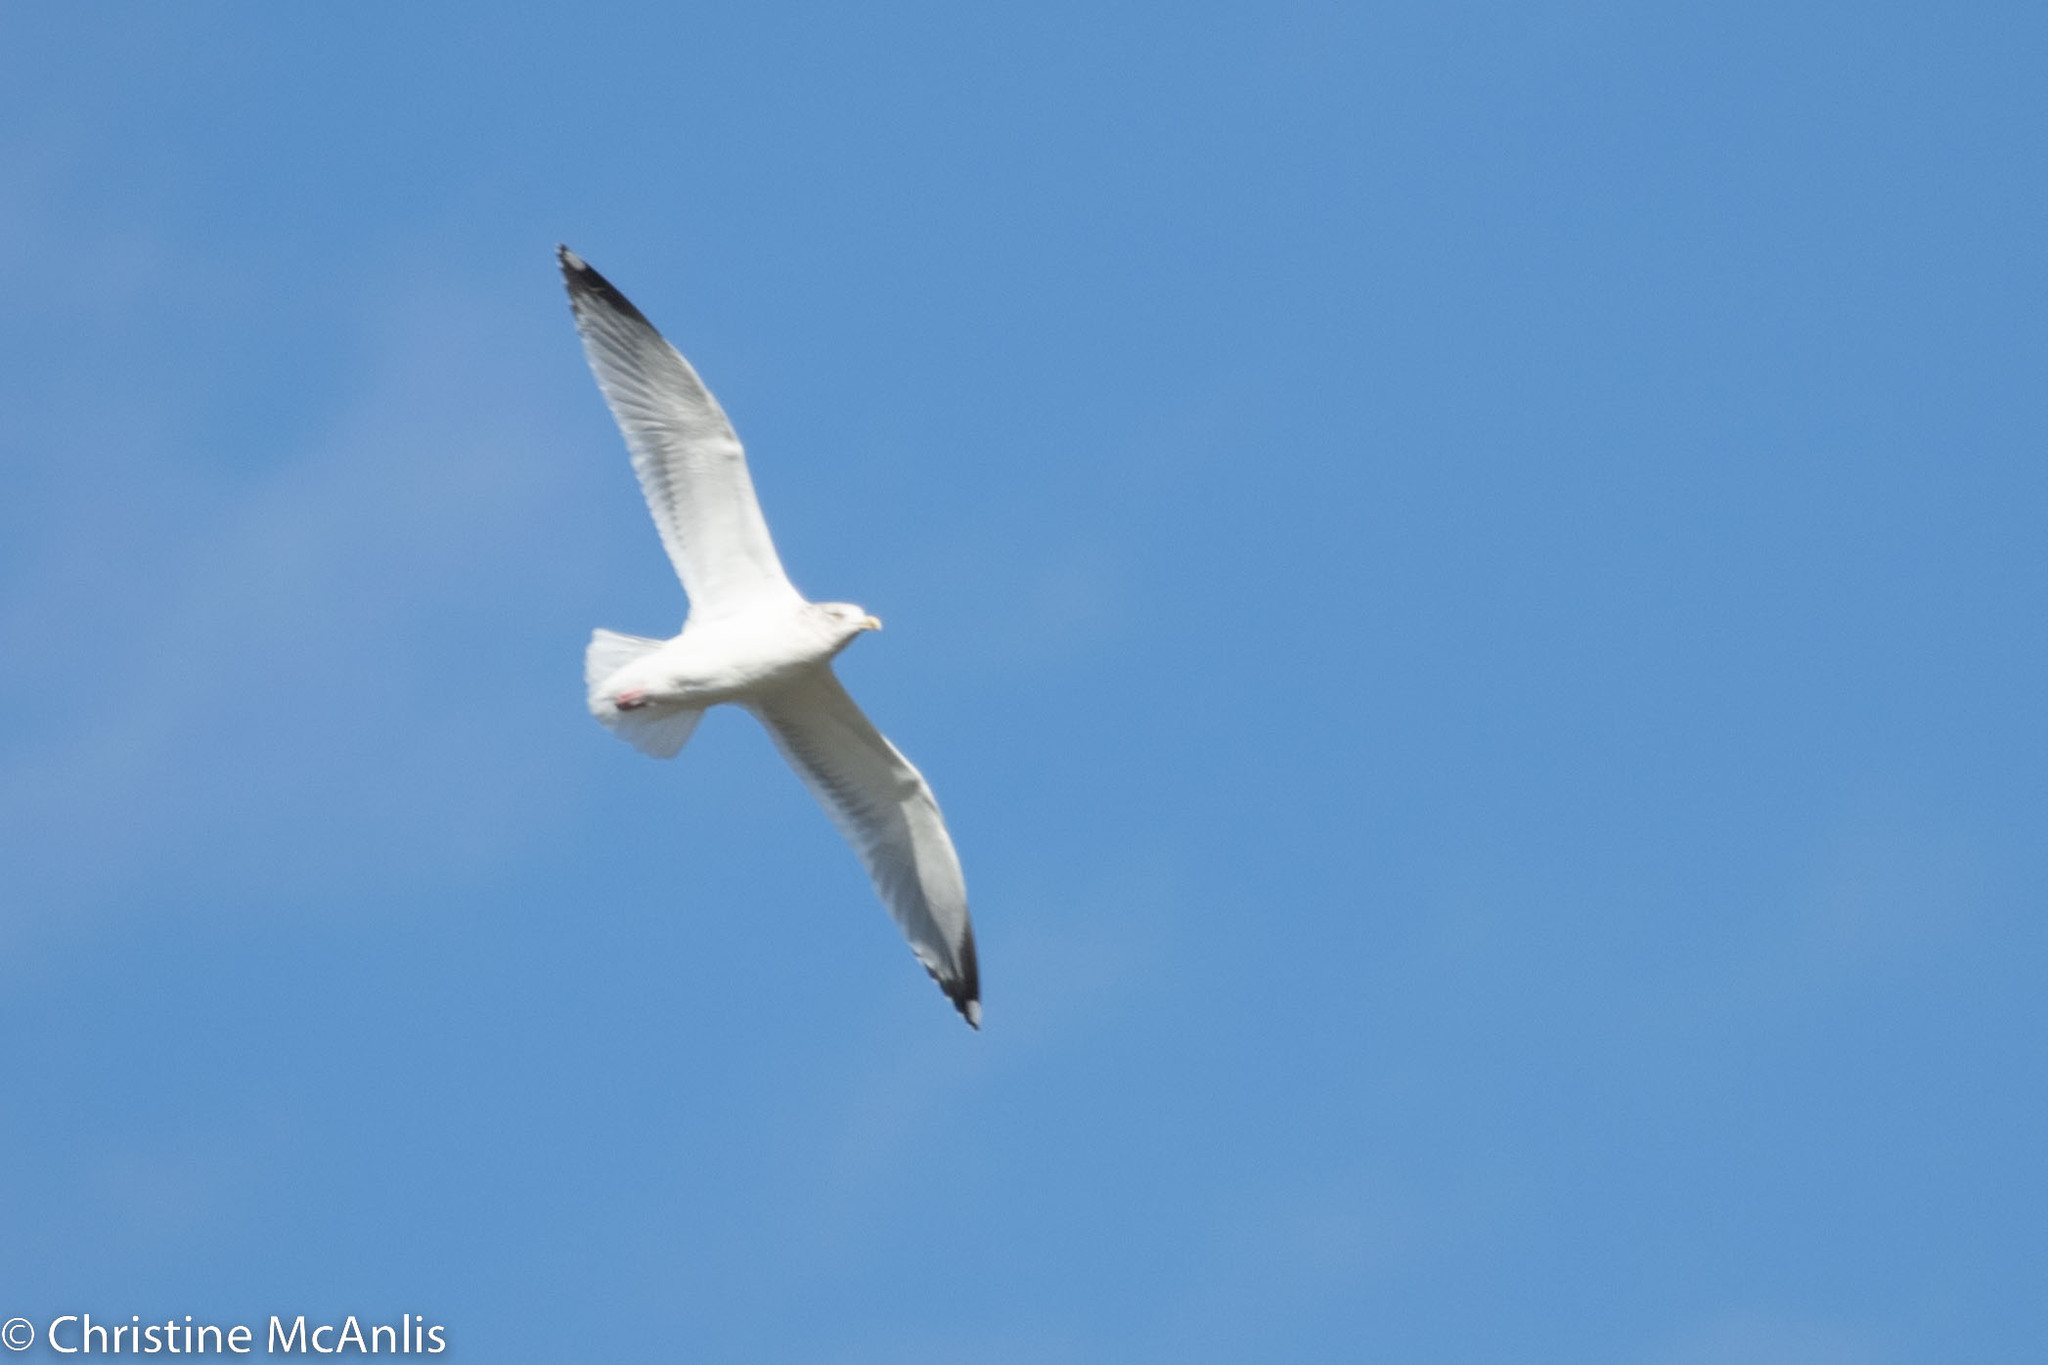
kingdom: Animalia
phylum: Chordata
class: Aves
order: Charadriiformes
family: Laridae
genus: Larus
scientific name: Larus argentatus
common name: Herring gull
